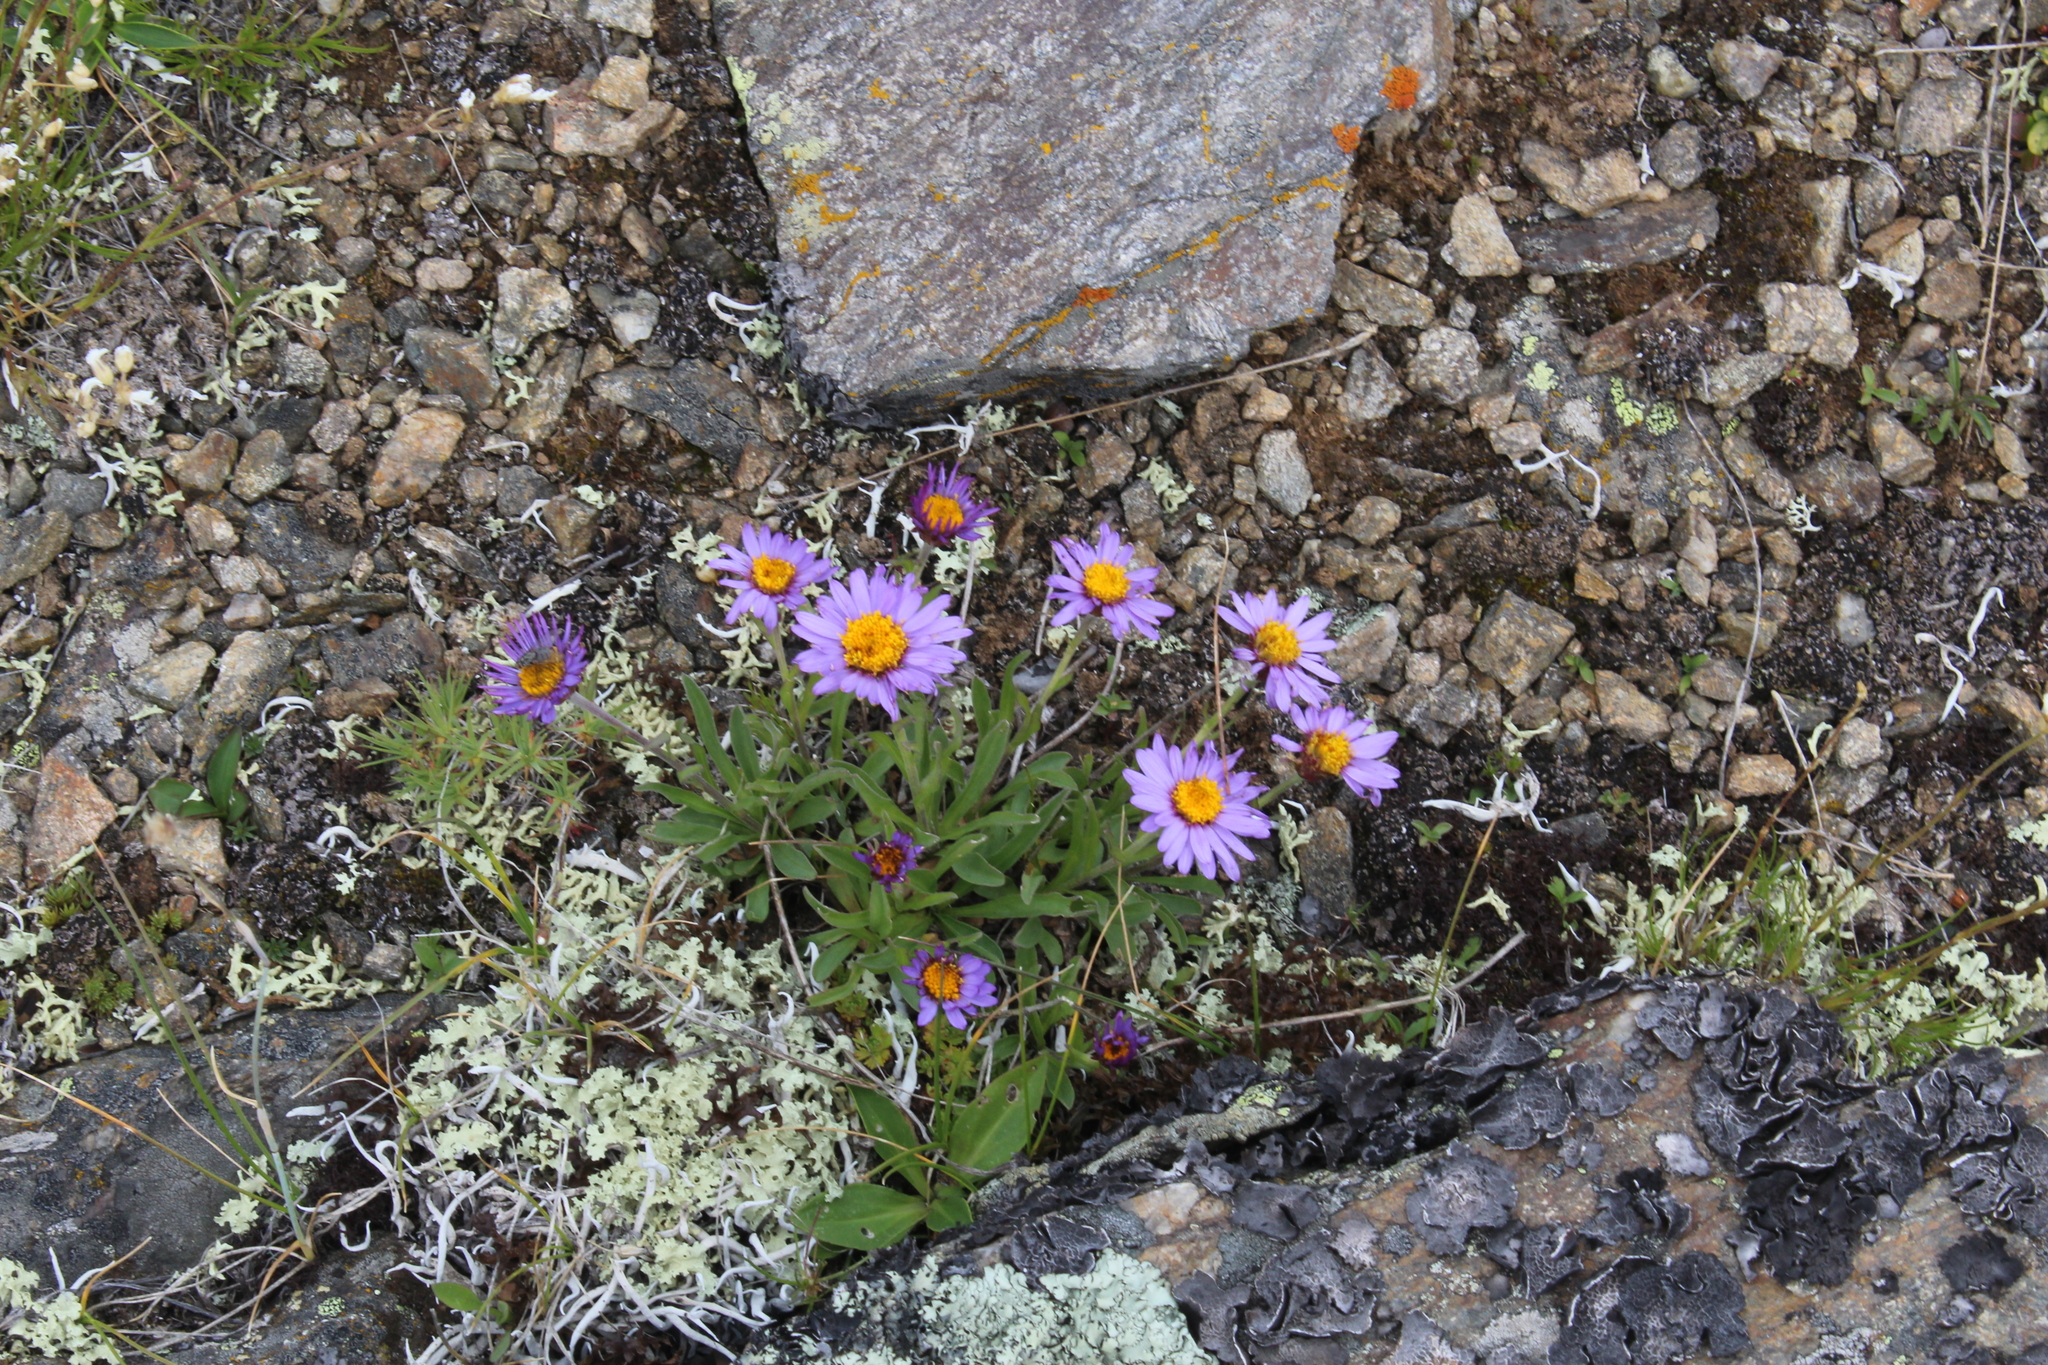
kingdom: Plantae
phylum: Tracheophyta
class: Magnoliopsida
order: Asterales
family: Asteraceae
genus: Aster
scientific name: Aster alpinus
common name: Alpine aster
